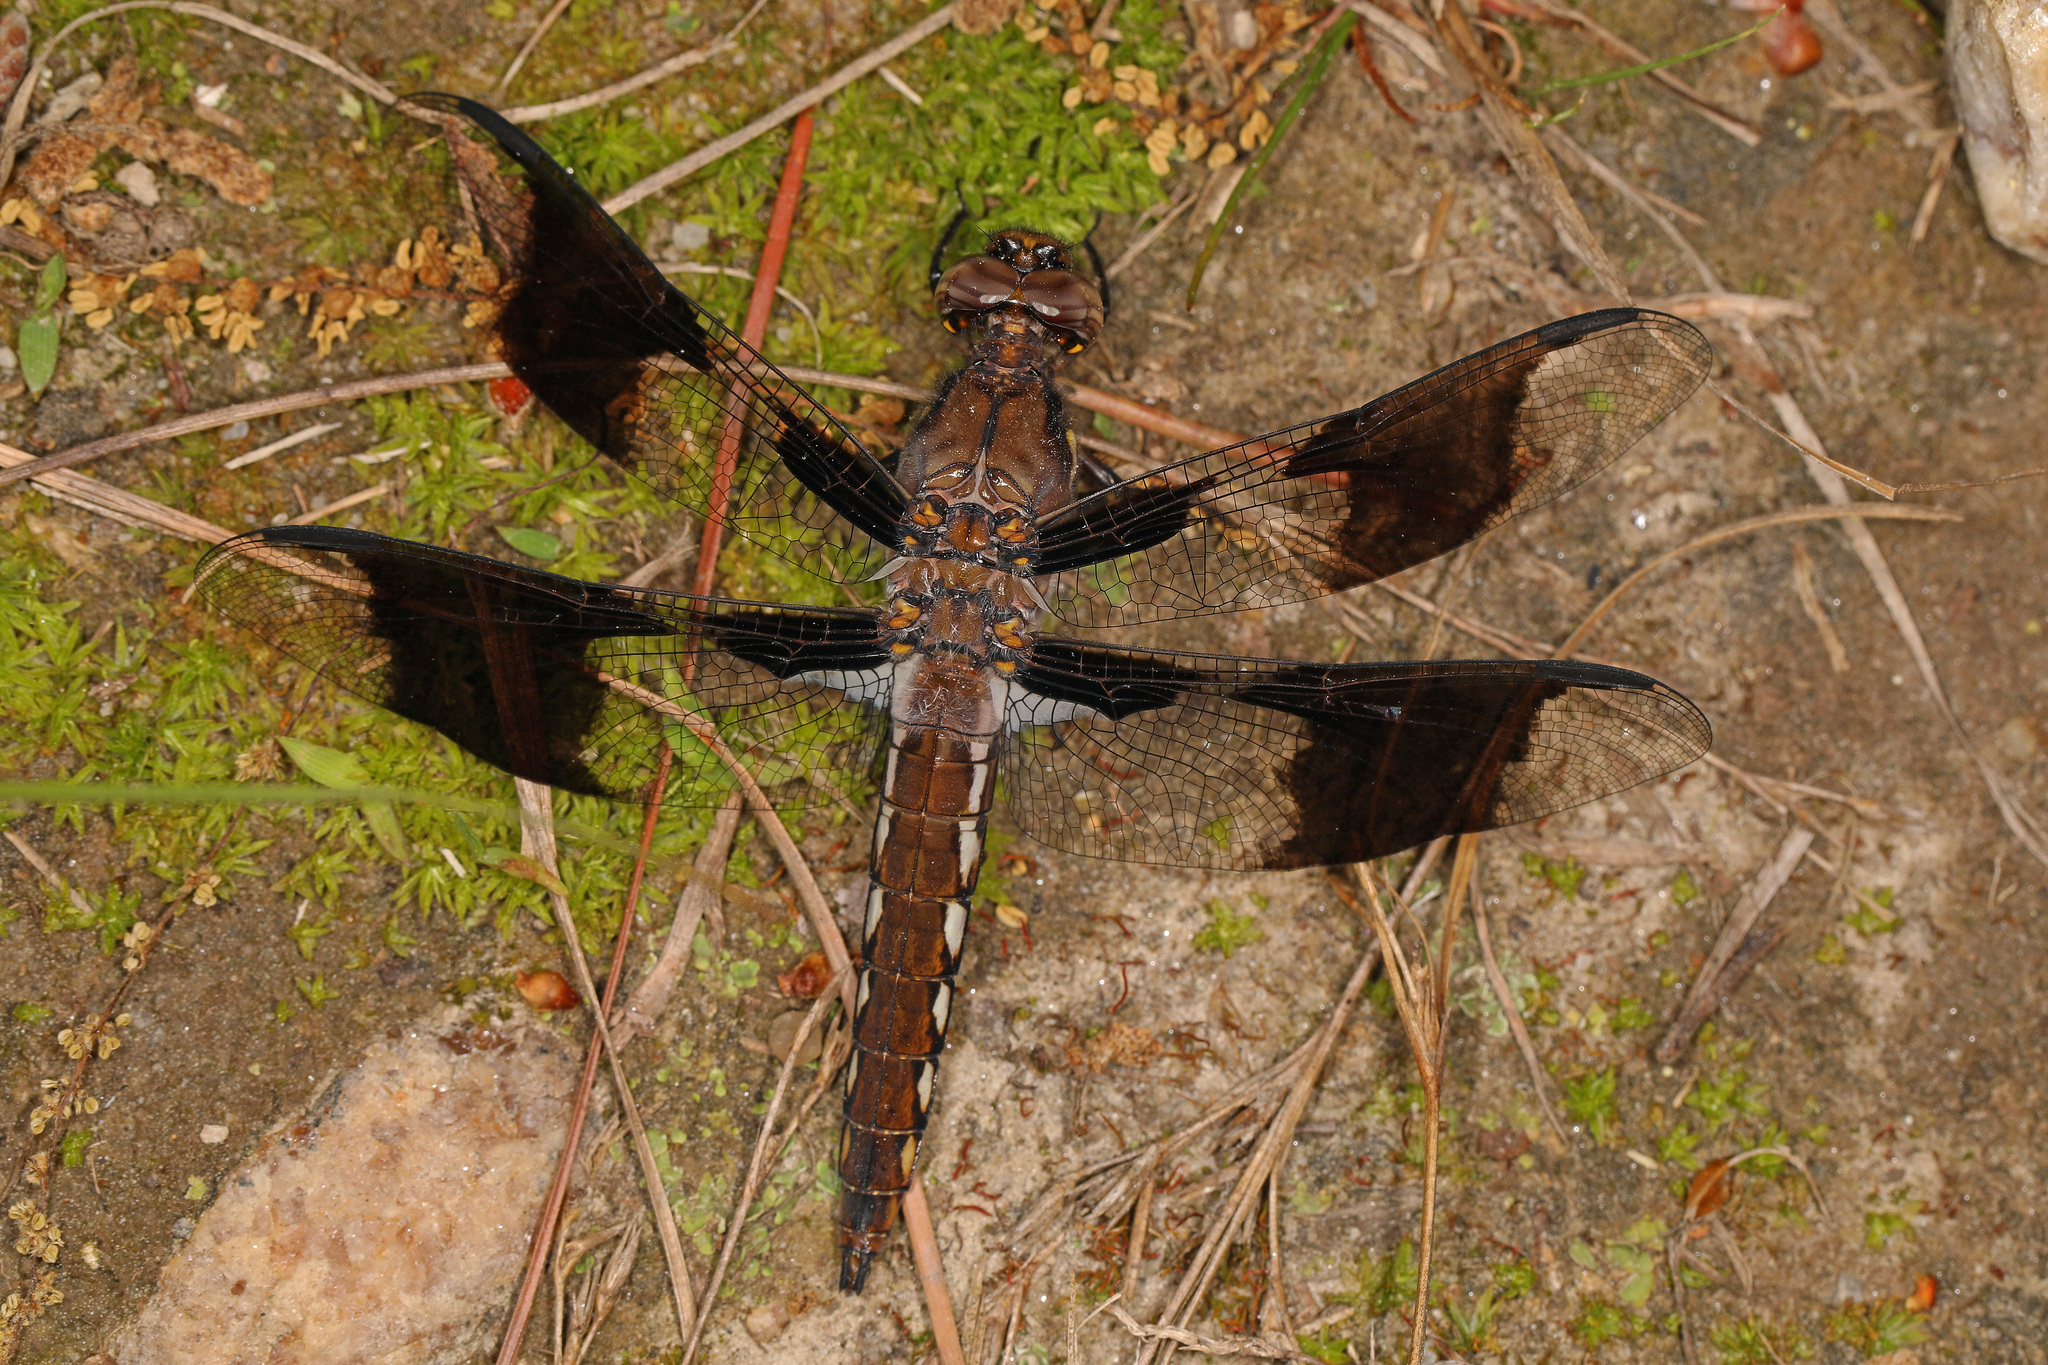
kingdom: Animalia
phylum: Arthropoda
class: Insecta
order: Odonata
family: Libellulidae
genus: Plathemis
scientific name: Plathemis lydia
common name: Common whitetail
